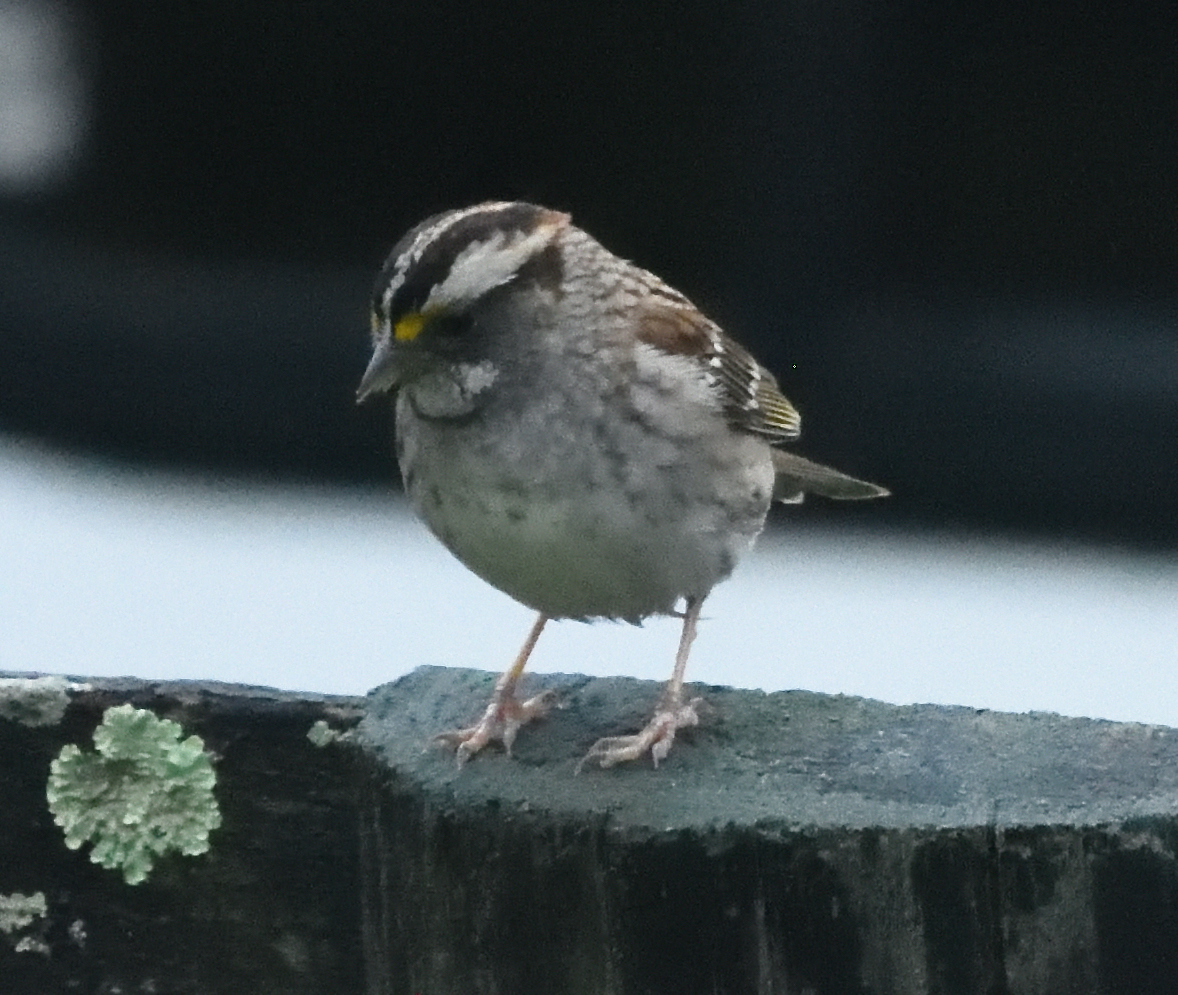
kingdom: Animalia
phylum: Chordata
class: Aves
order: Passeriformes
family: Passerellidae
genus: Zonotrichia
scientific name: Zonotrichia albicollis
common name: White-throated sparrow
